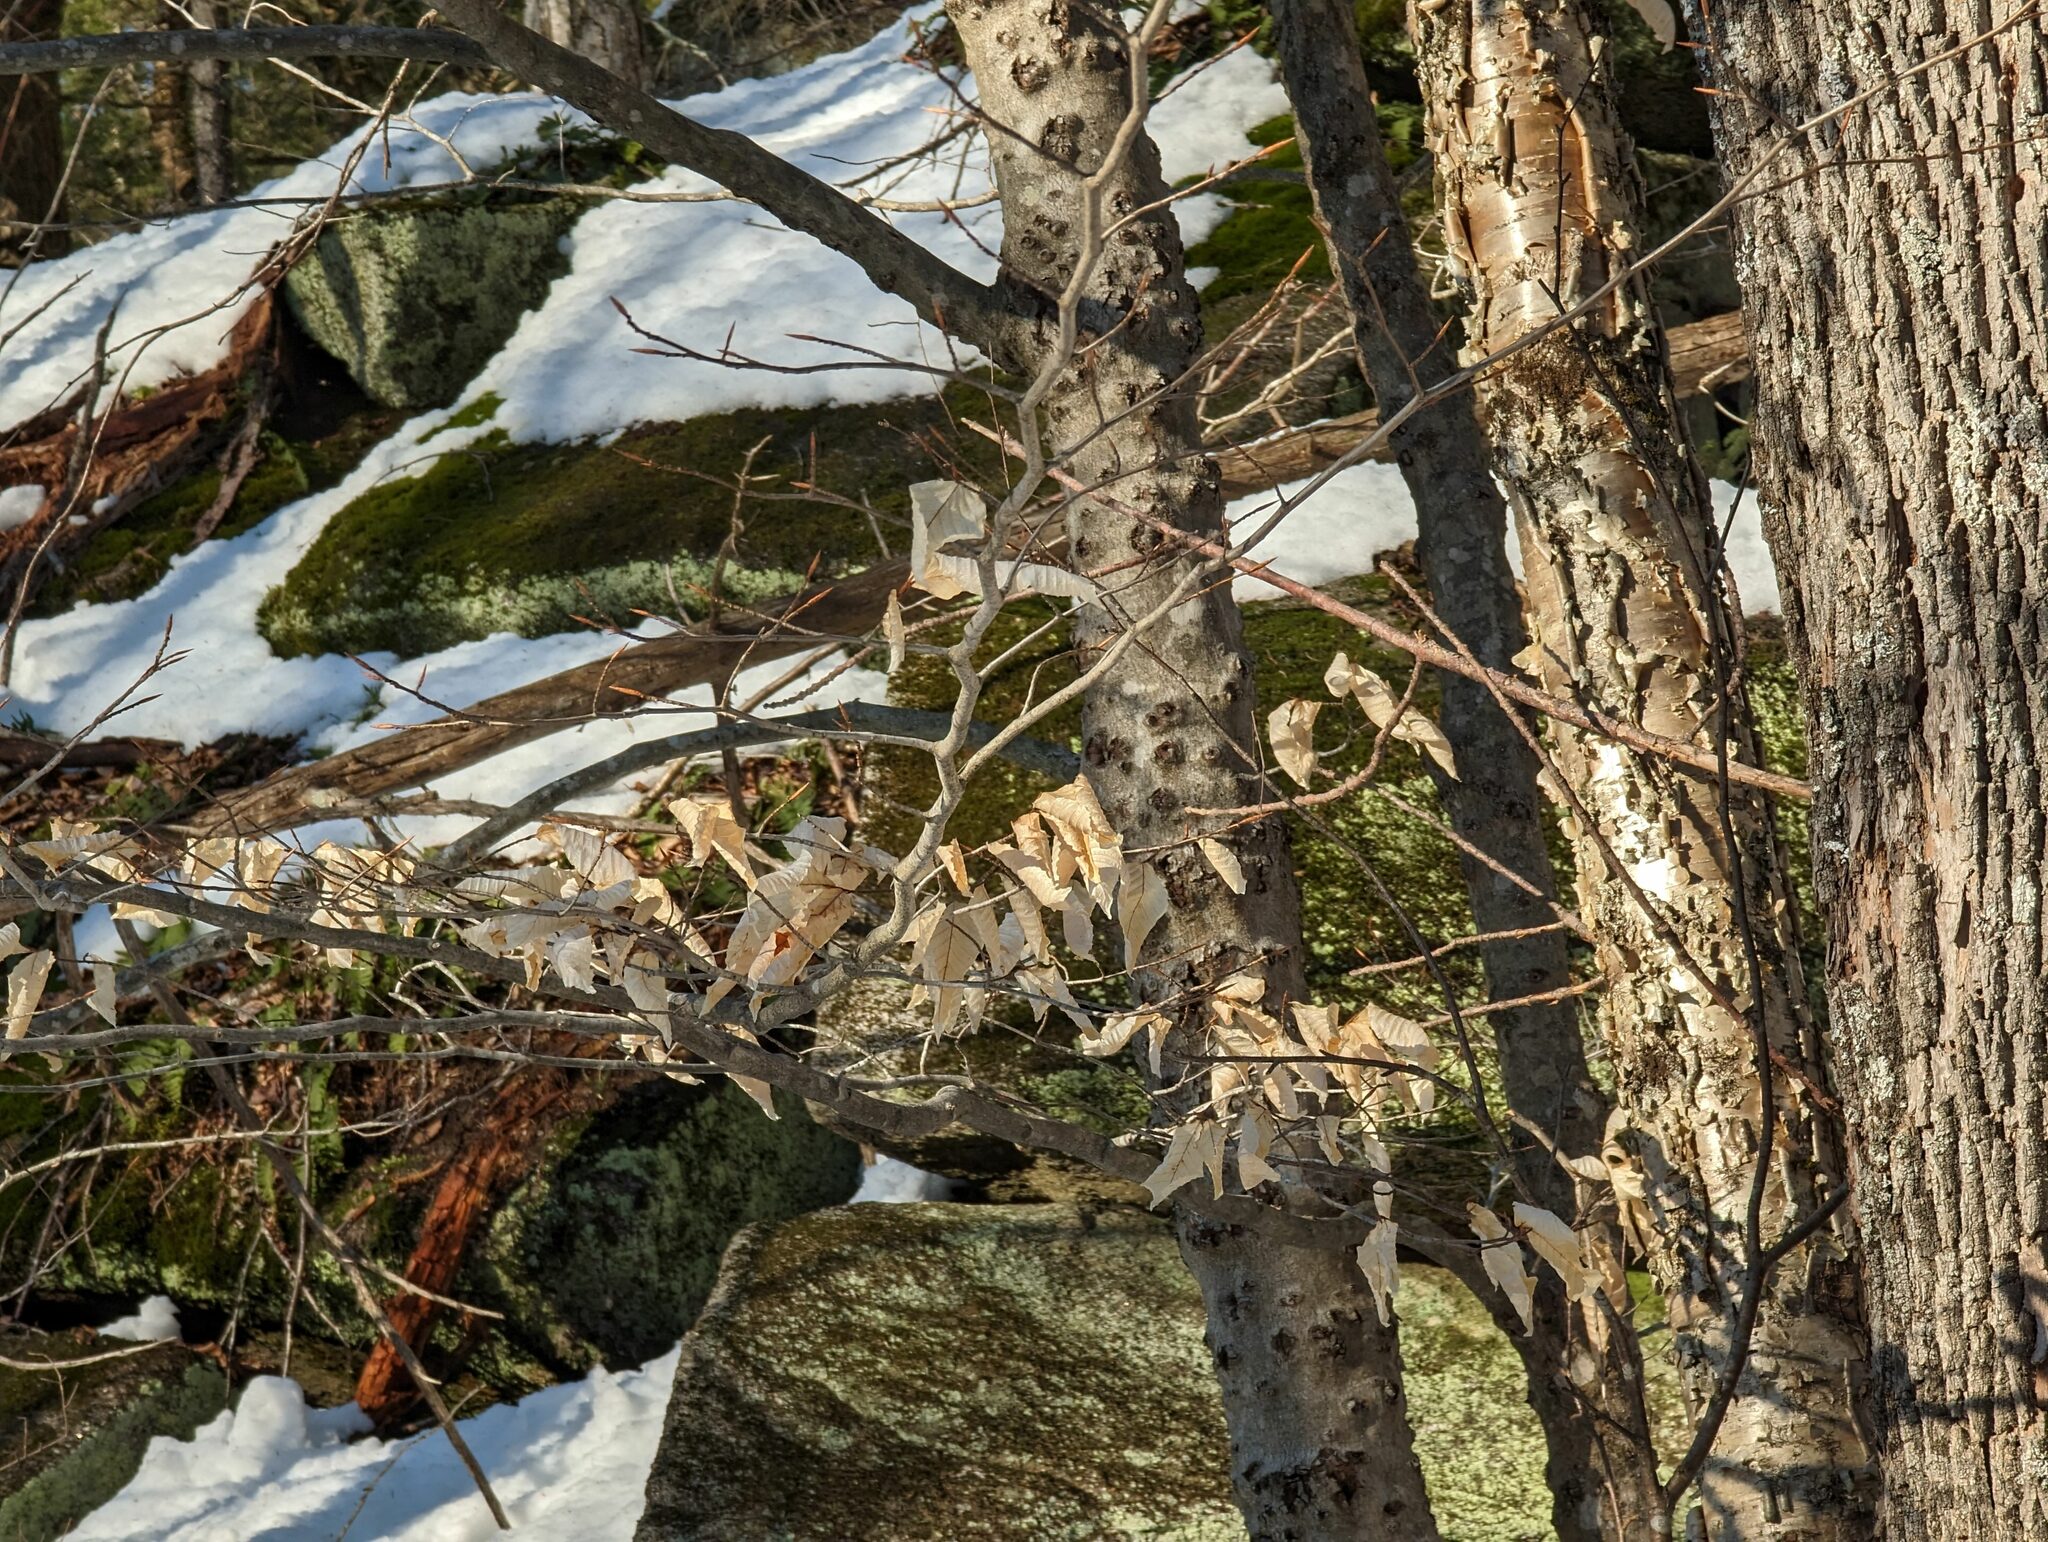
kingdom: Plantae
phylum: Tracheophyta
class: Magnoliopsida
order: Fagales
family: Fagaceae
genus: Fagus
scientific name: Fagus grandifolia
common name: American beech
